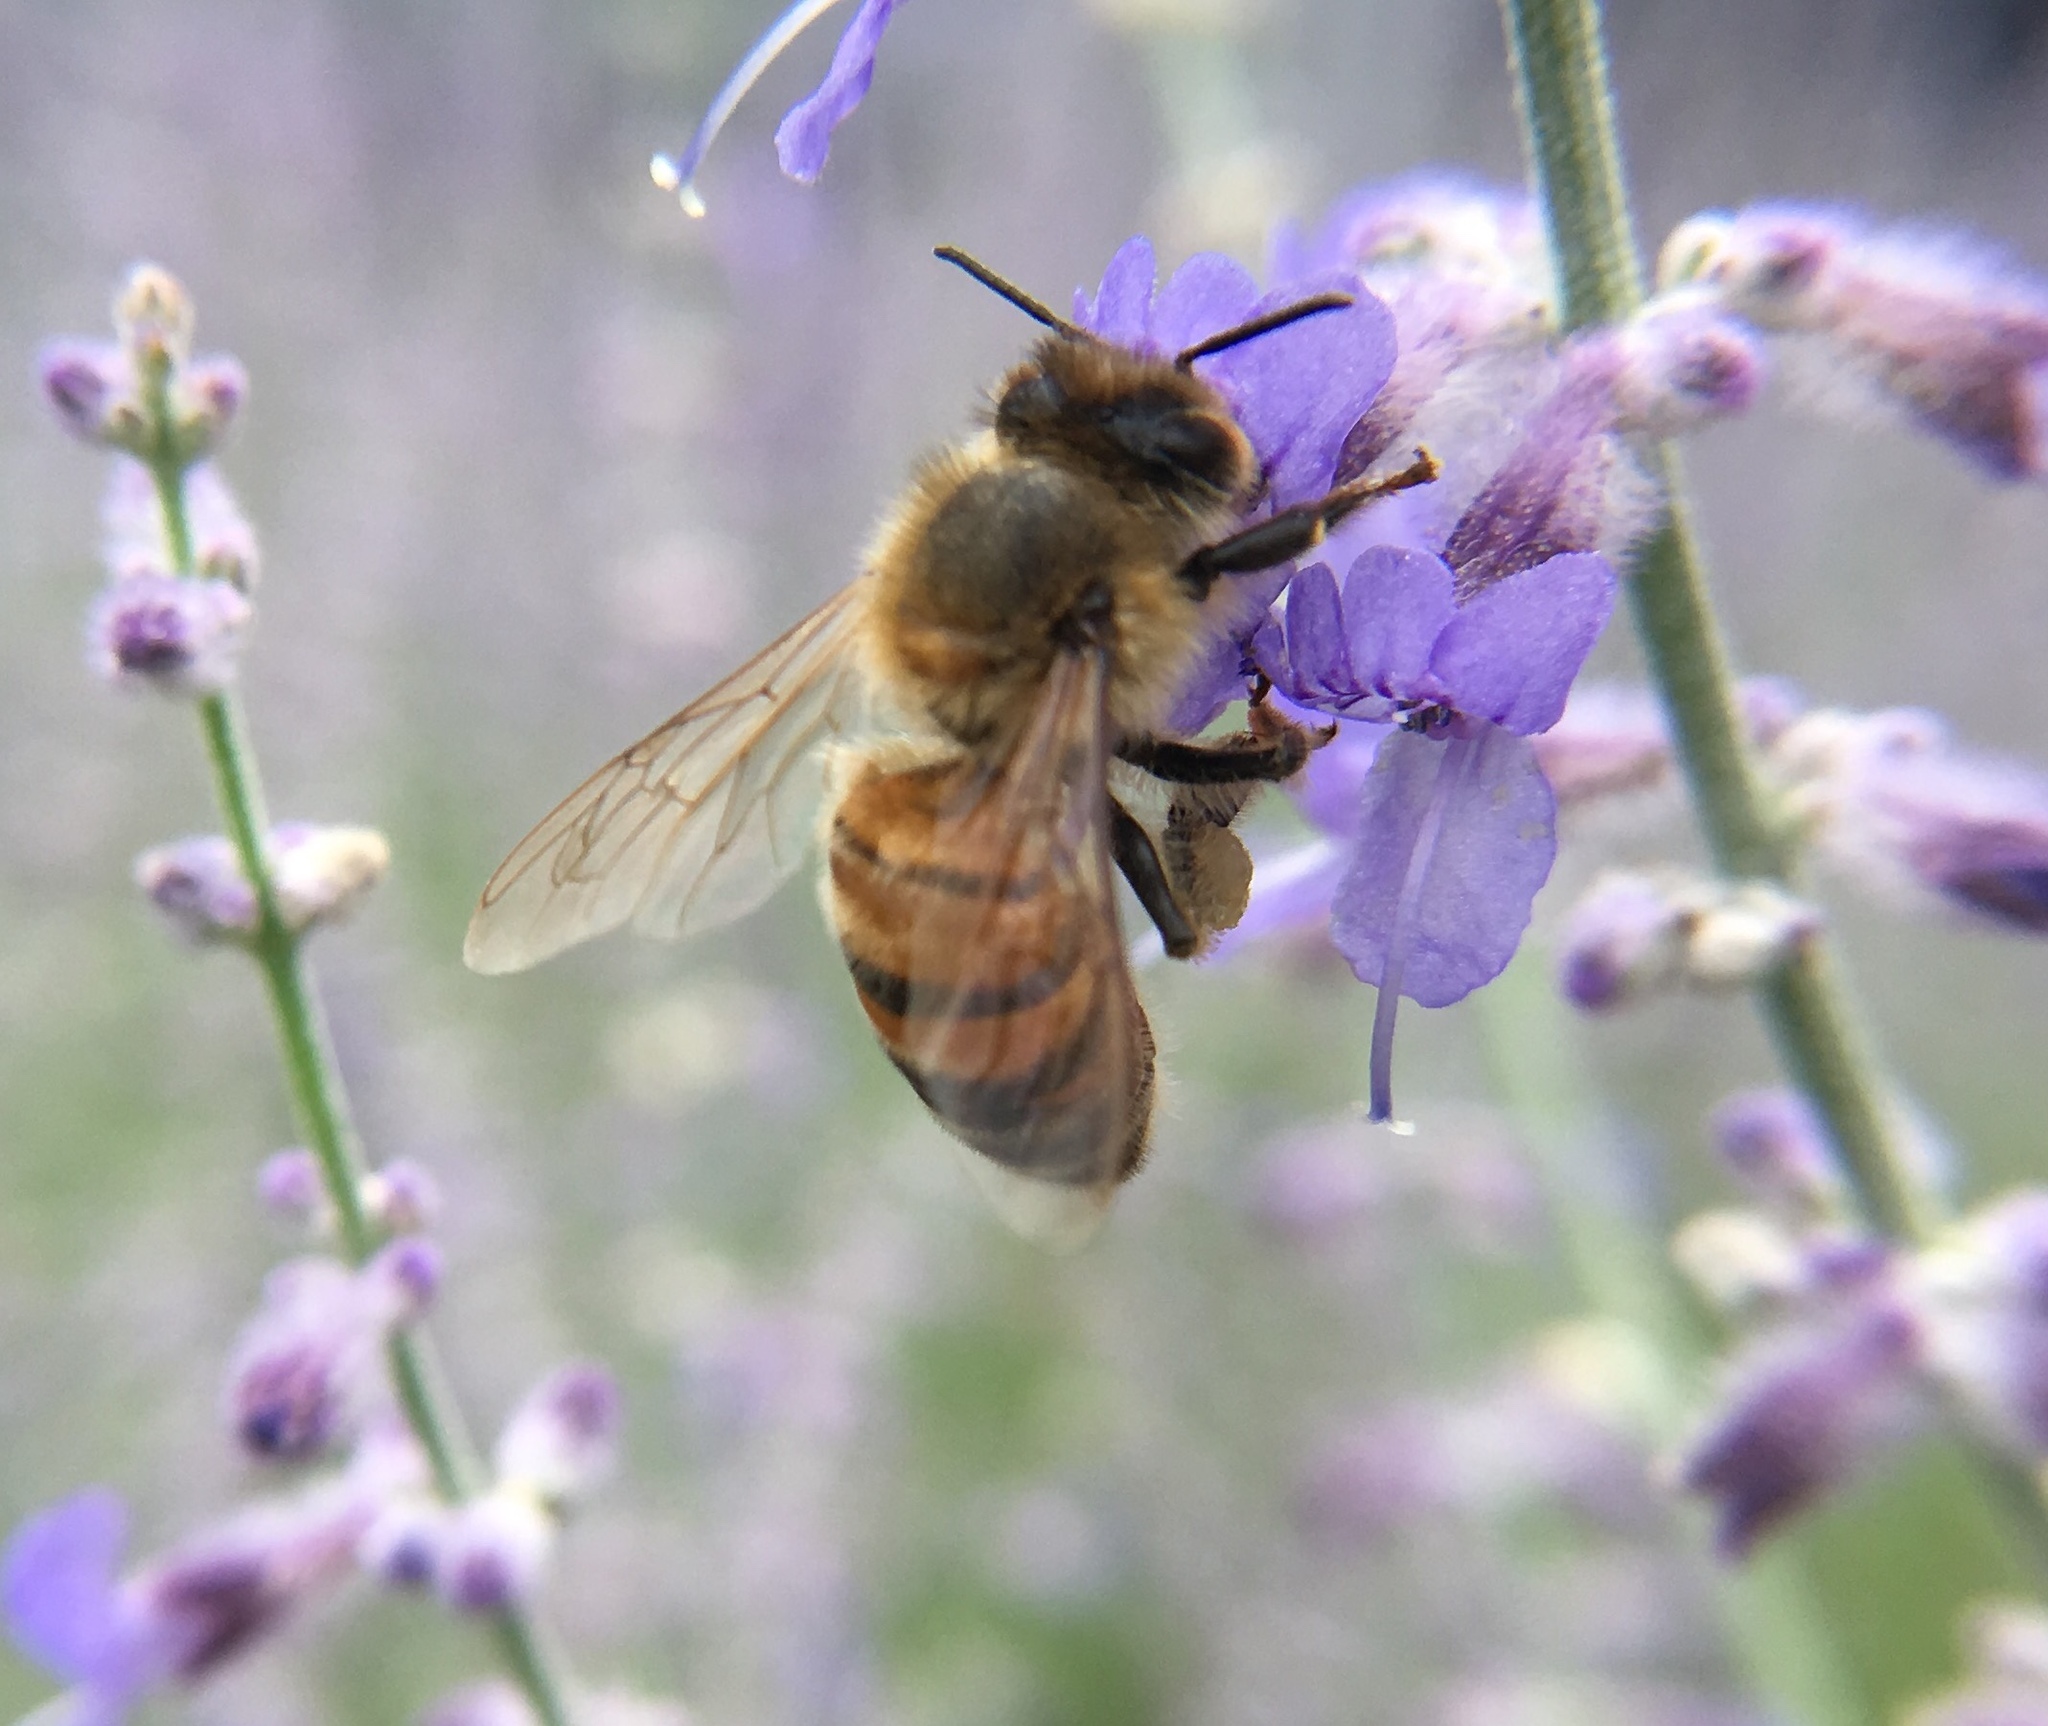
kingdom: Animalia
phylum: Arthropoda
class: Insecta
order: Hymenoptera
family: Apidae
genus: Apis
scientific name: Apis mellifera
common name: Honey bee
